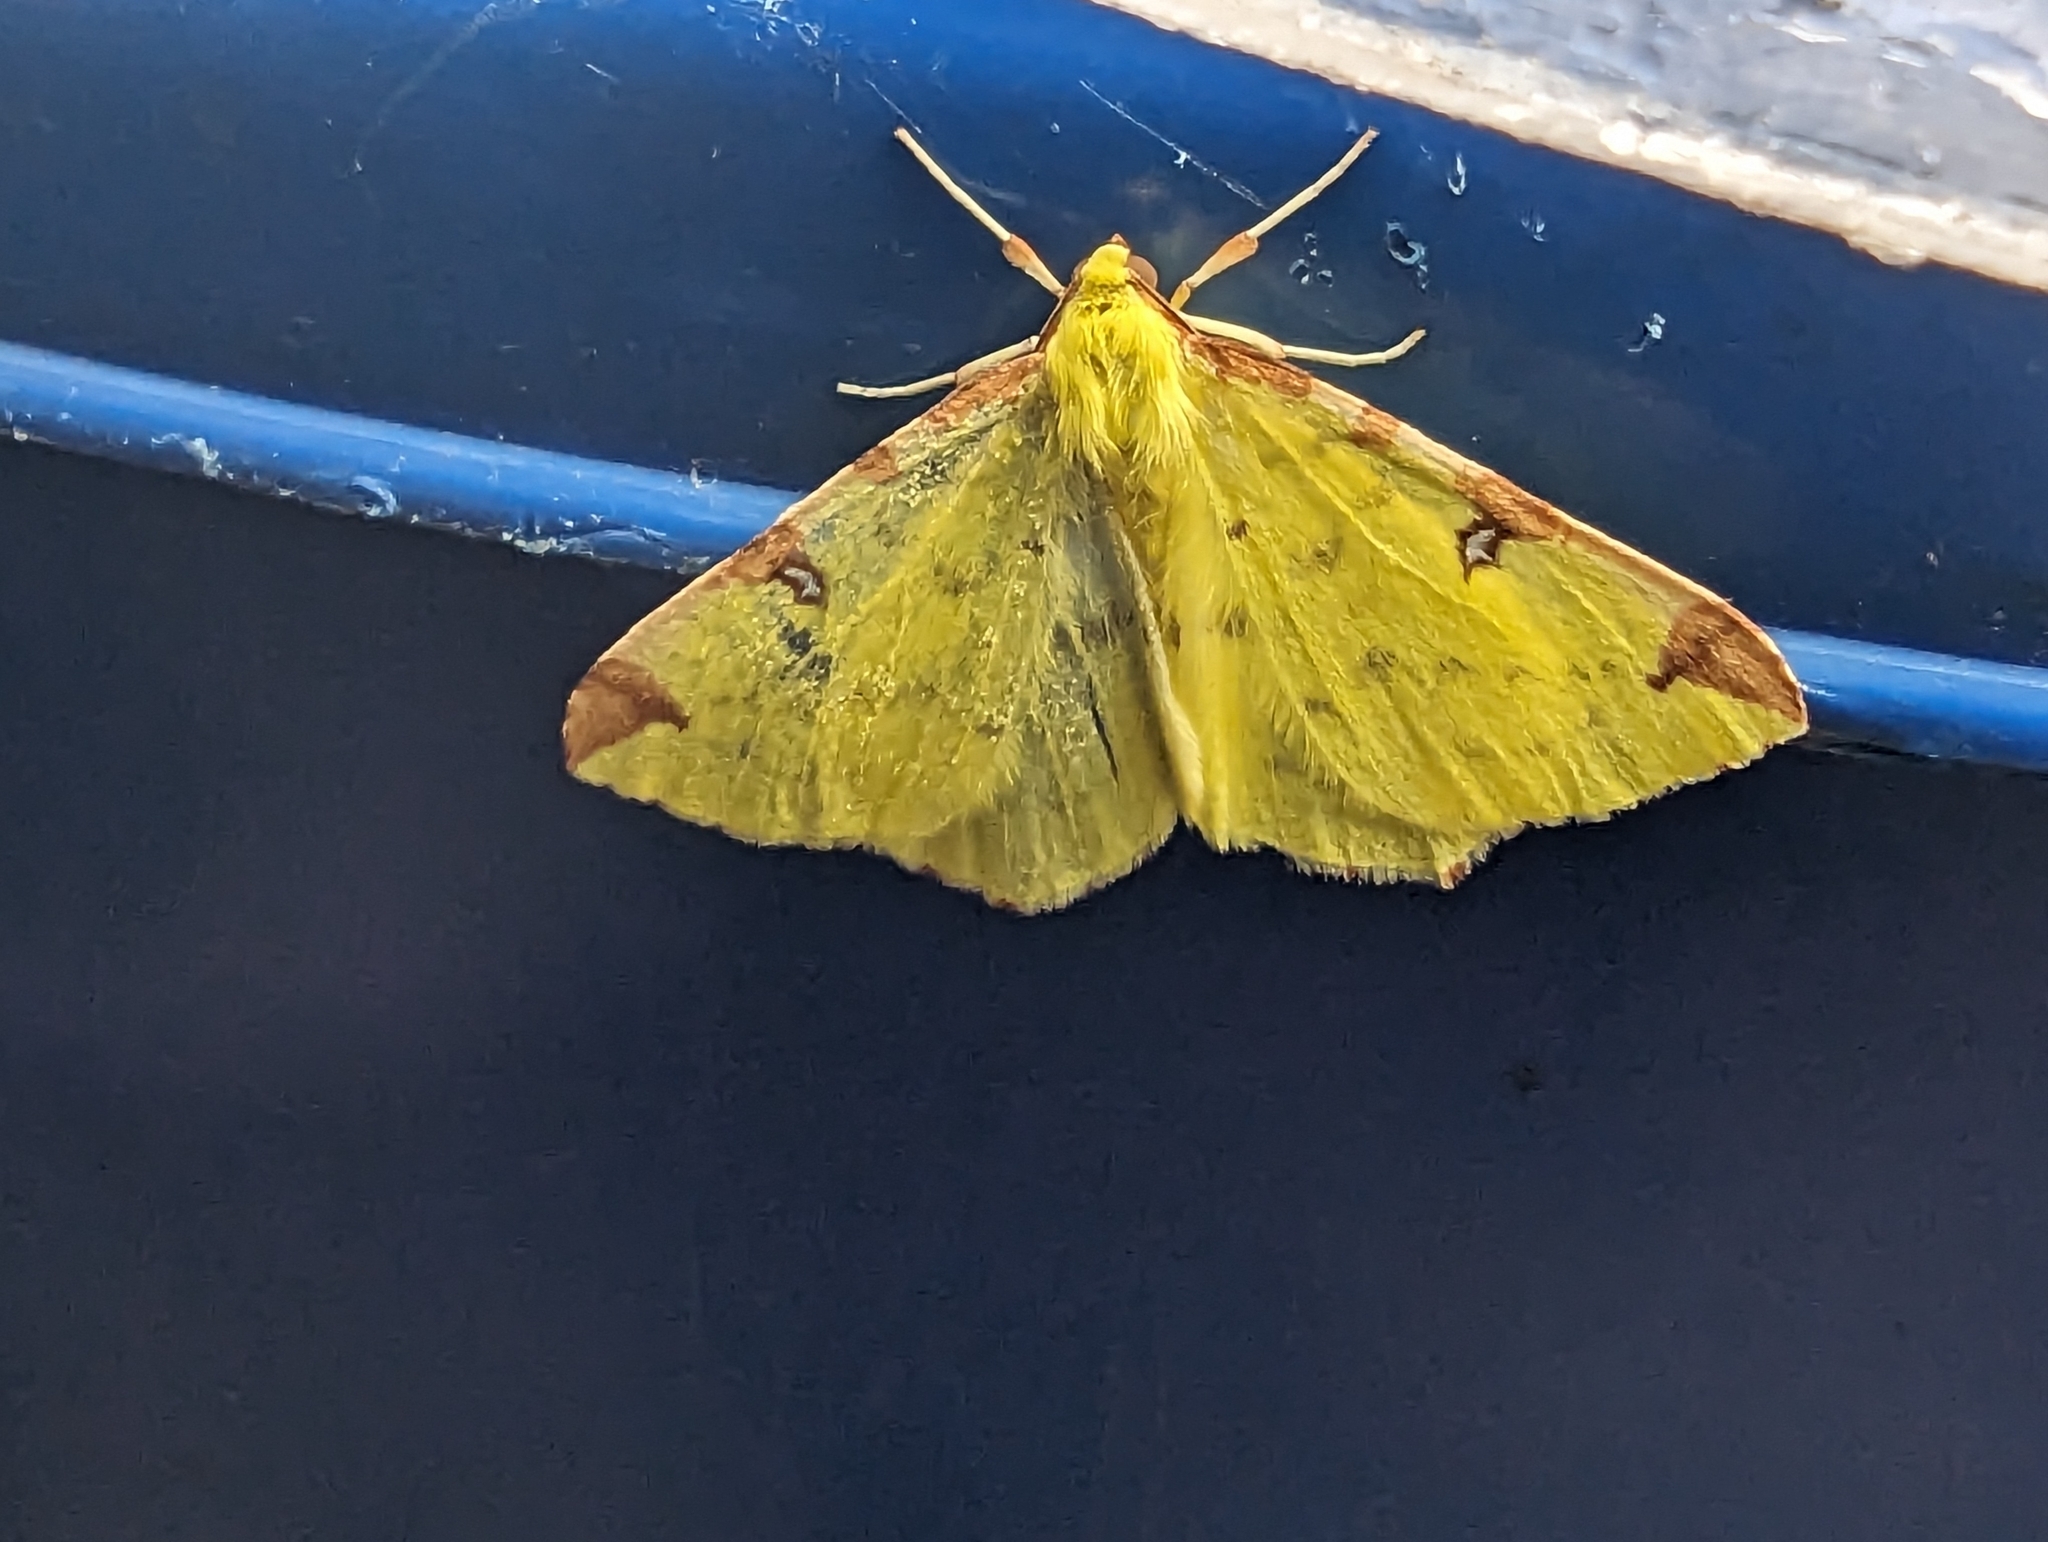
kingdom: Animalia
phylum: Arthropoda
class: Insecta
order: Lepidoptera
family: Geometridae
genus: Opisthograptis
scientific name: Opisthograptis luteolata
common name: Brimstone moth
